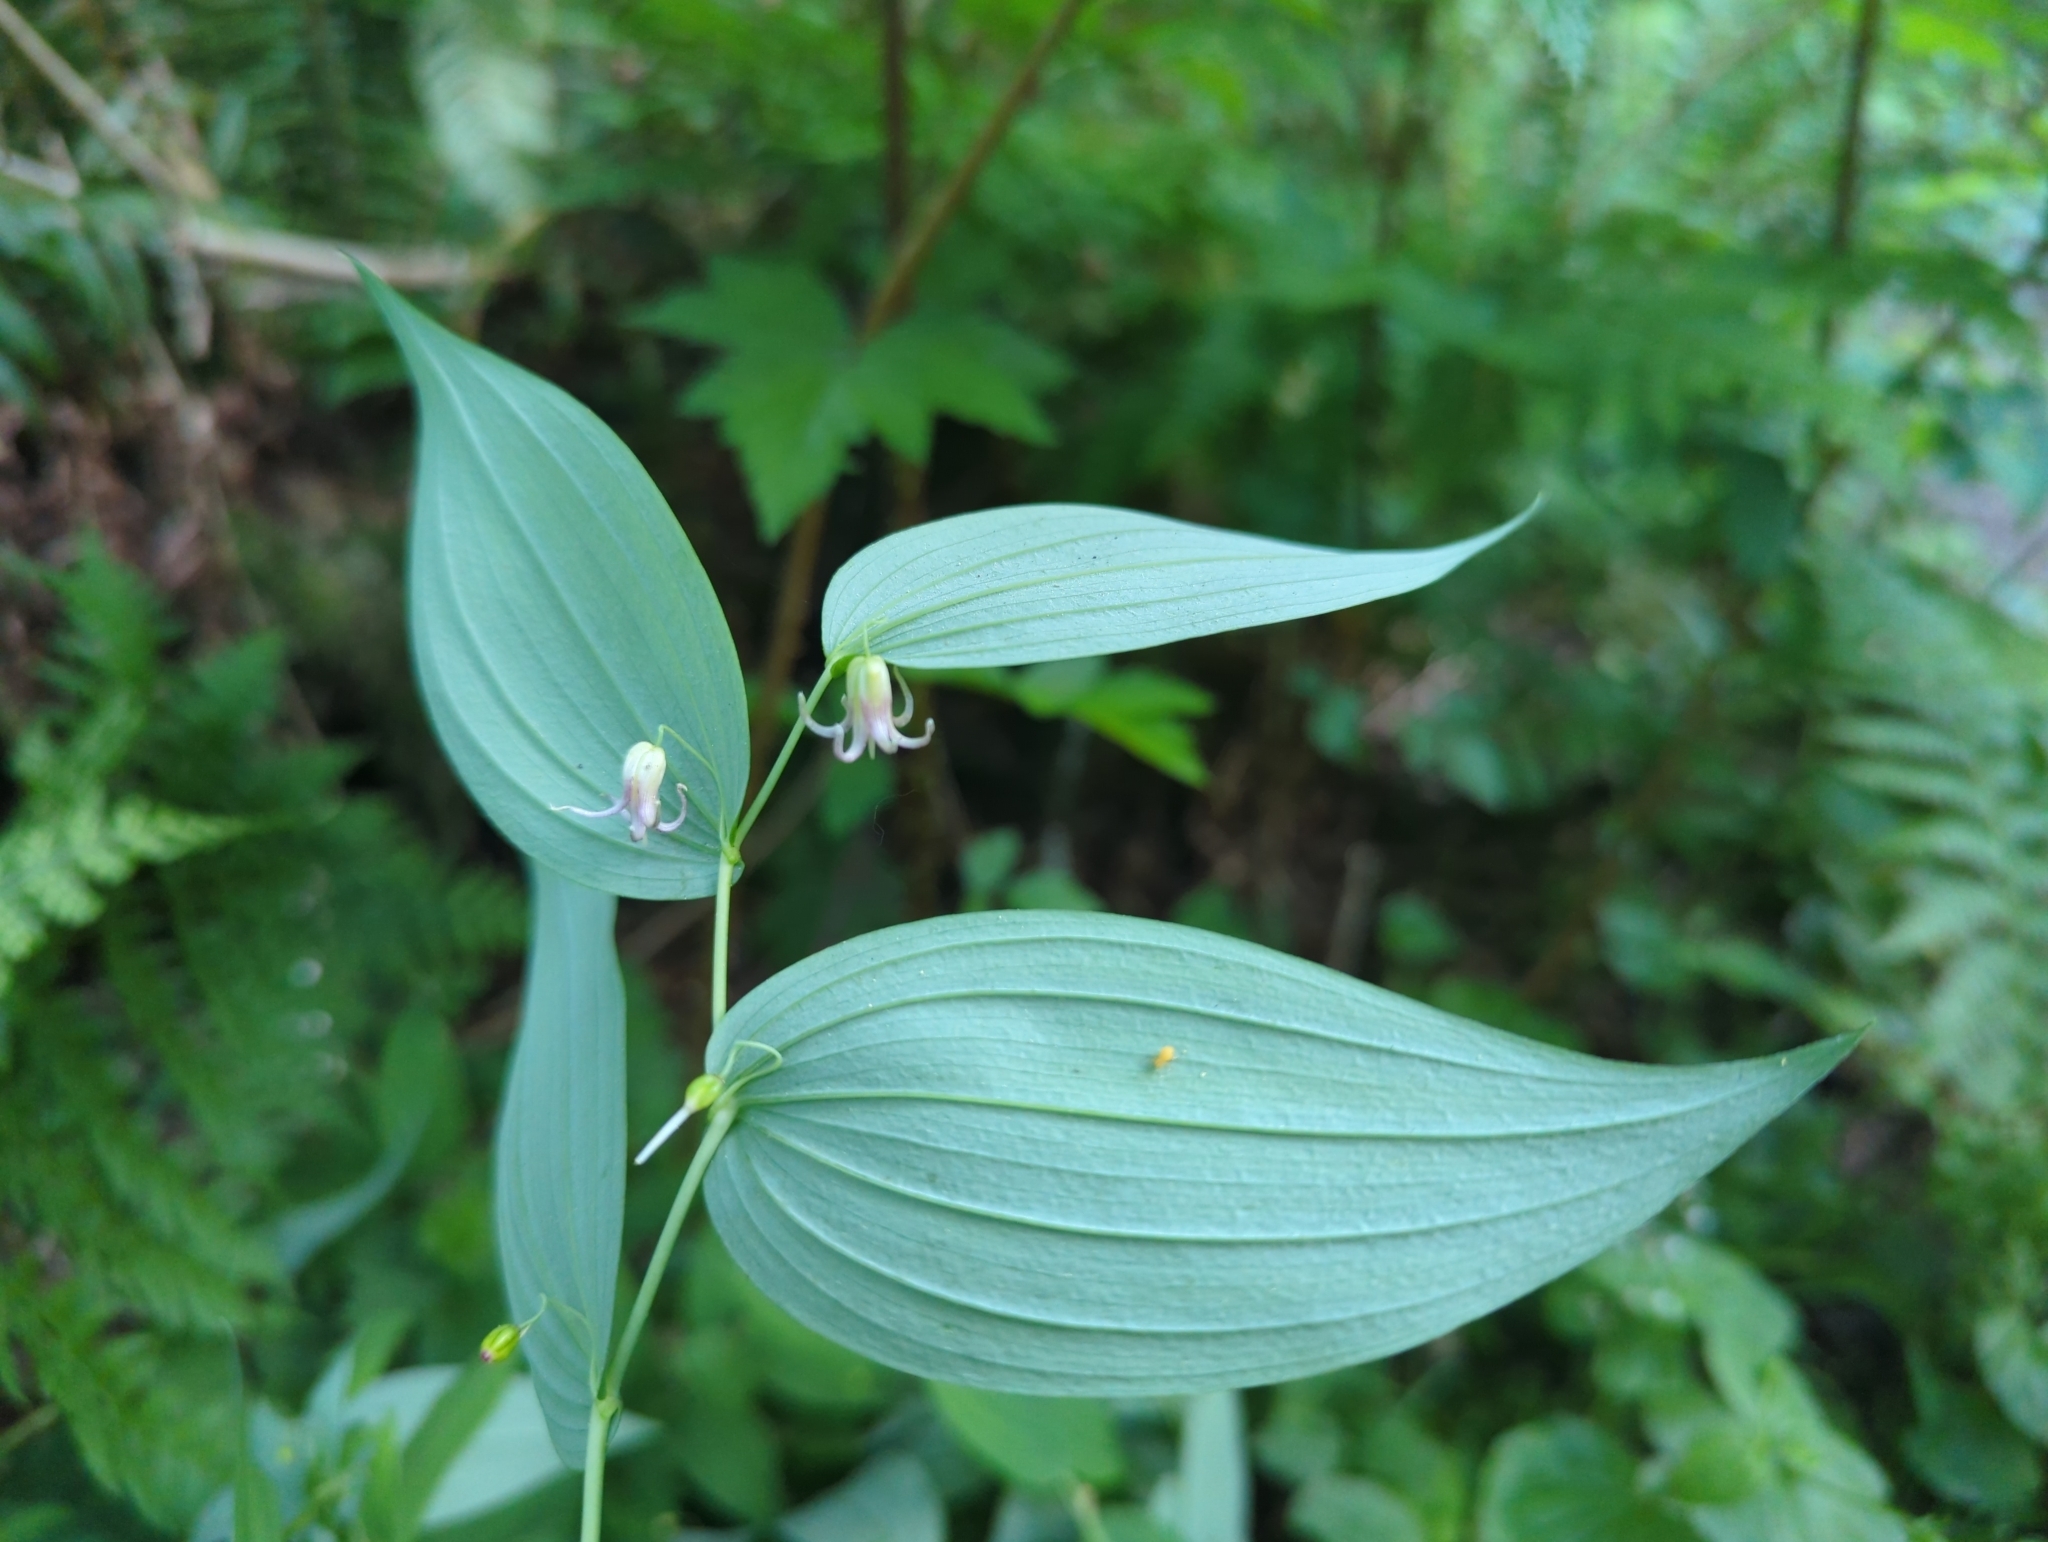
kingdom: Plantae
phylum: Tracheophyta
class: Liliopsida
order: Liliales
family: Liliaceae
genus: Streptopus
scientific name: Streptopus amplexifolius
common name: Clasp twisted stalk
